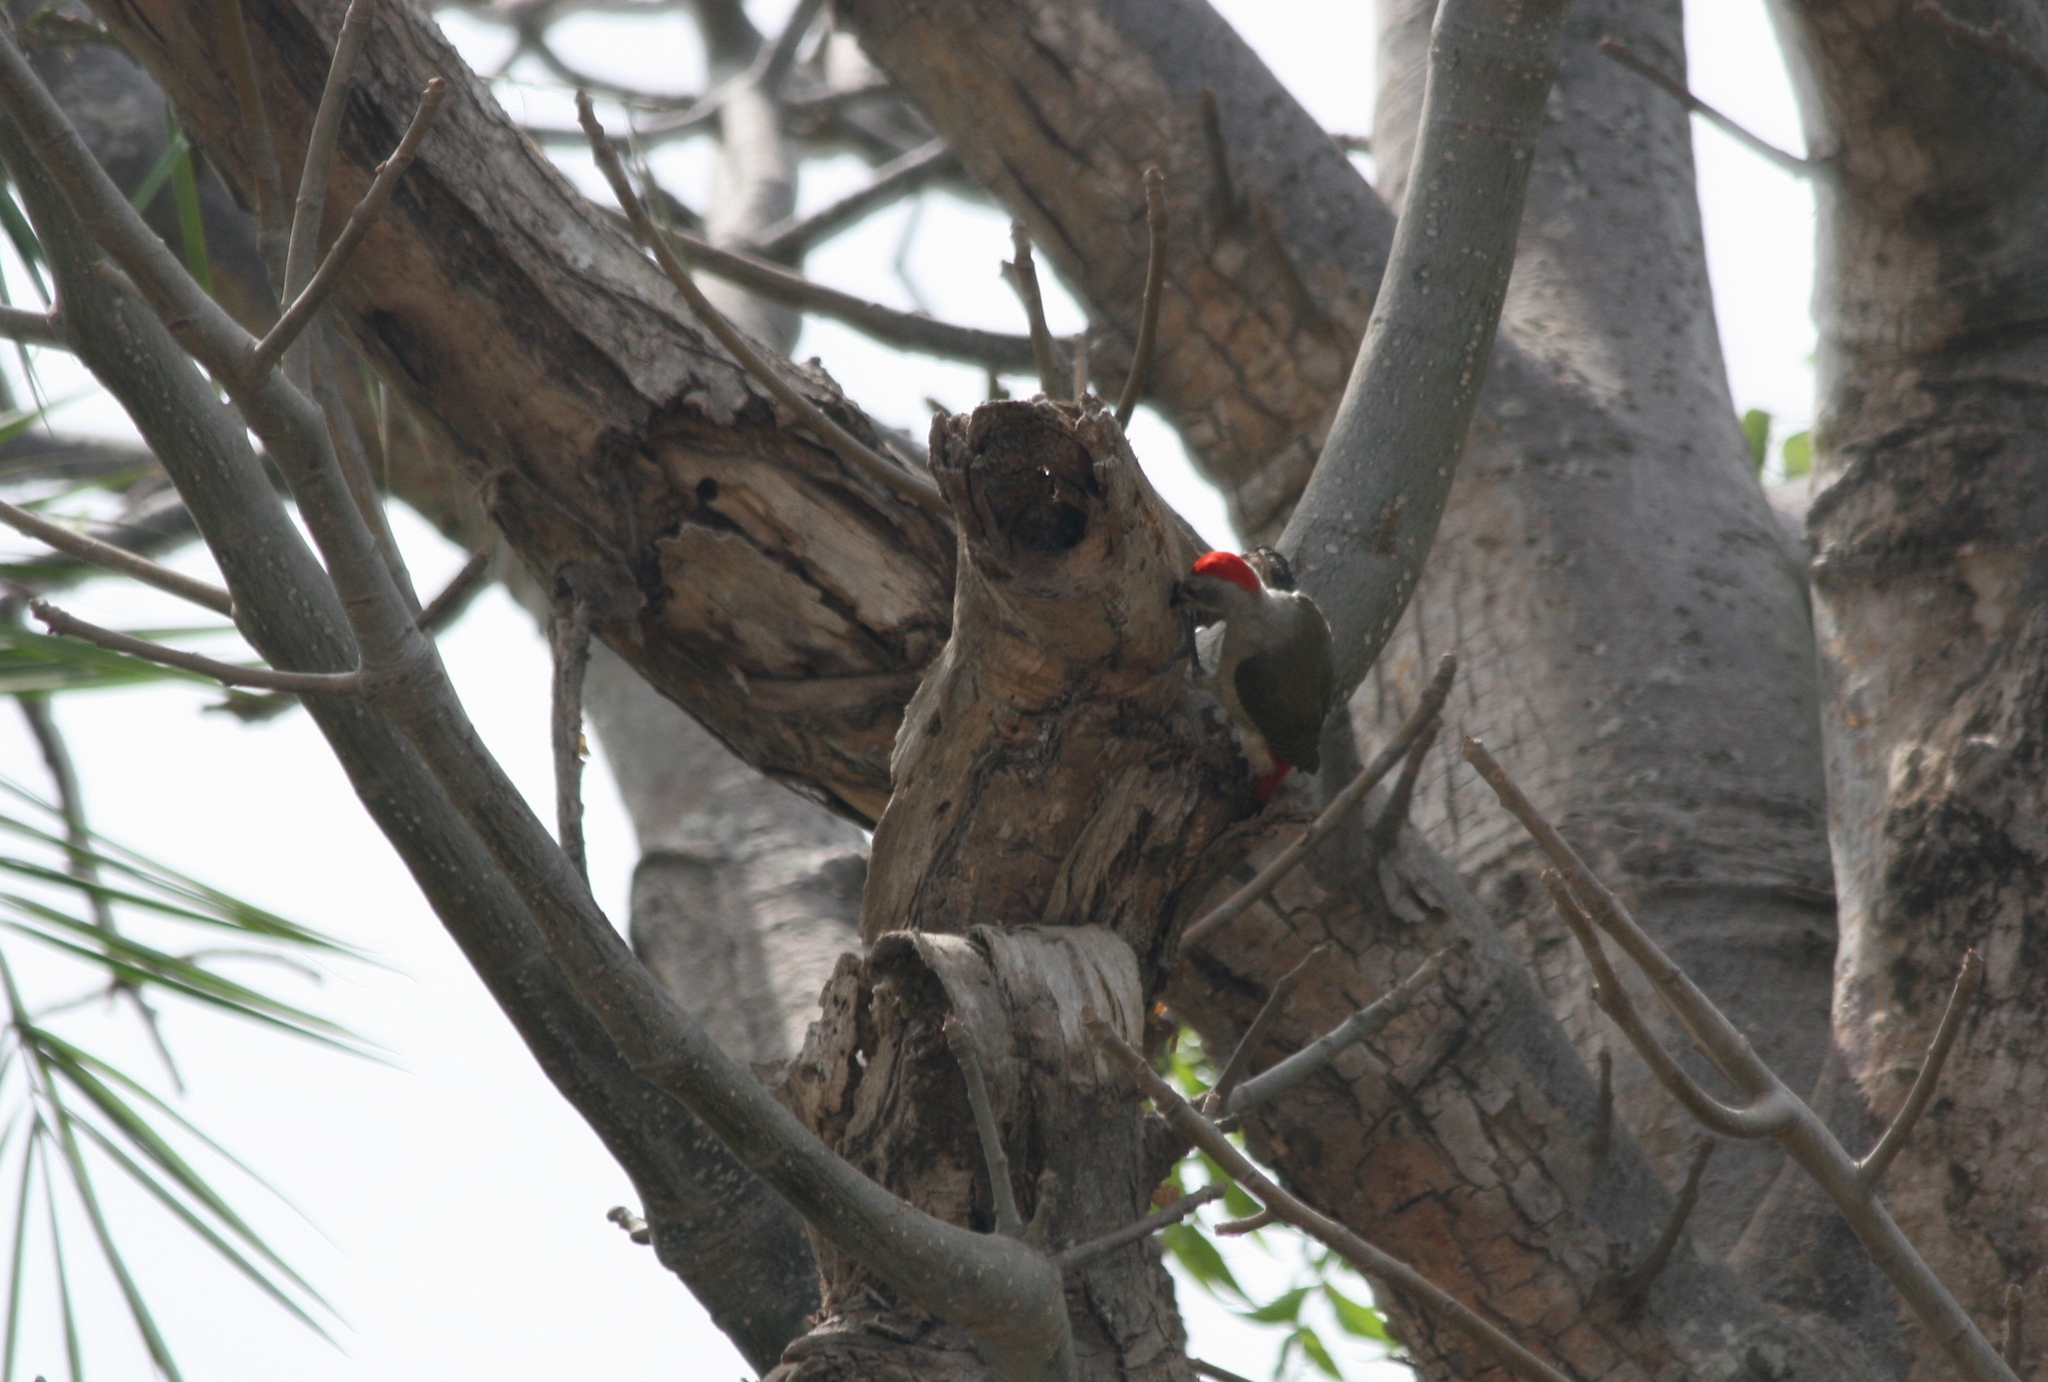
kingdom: Animalia
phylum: Chordata
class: Aves
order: Piciformes
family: Picidae
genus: Dendropicos
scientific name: Dendropicos goertae
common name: African grey woodpecker
